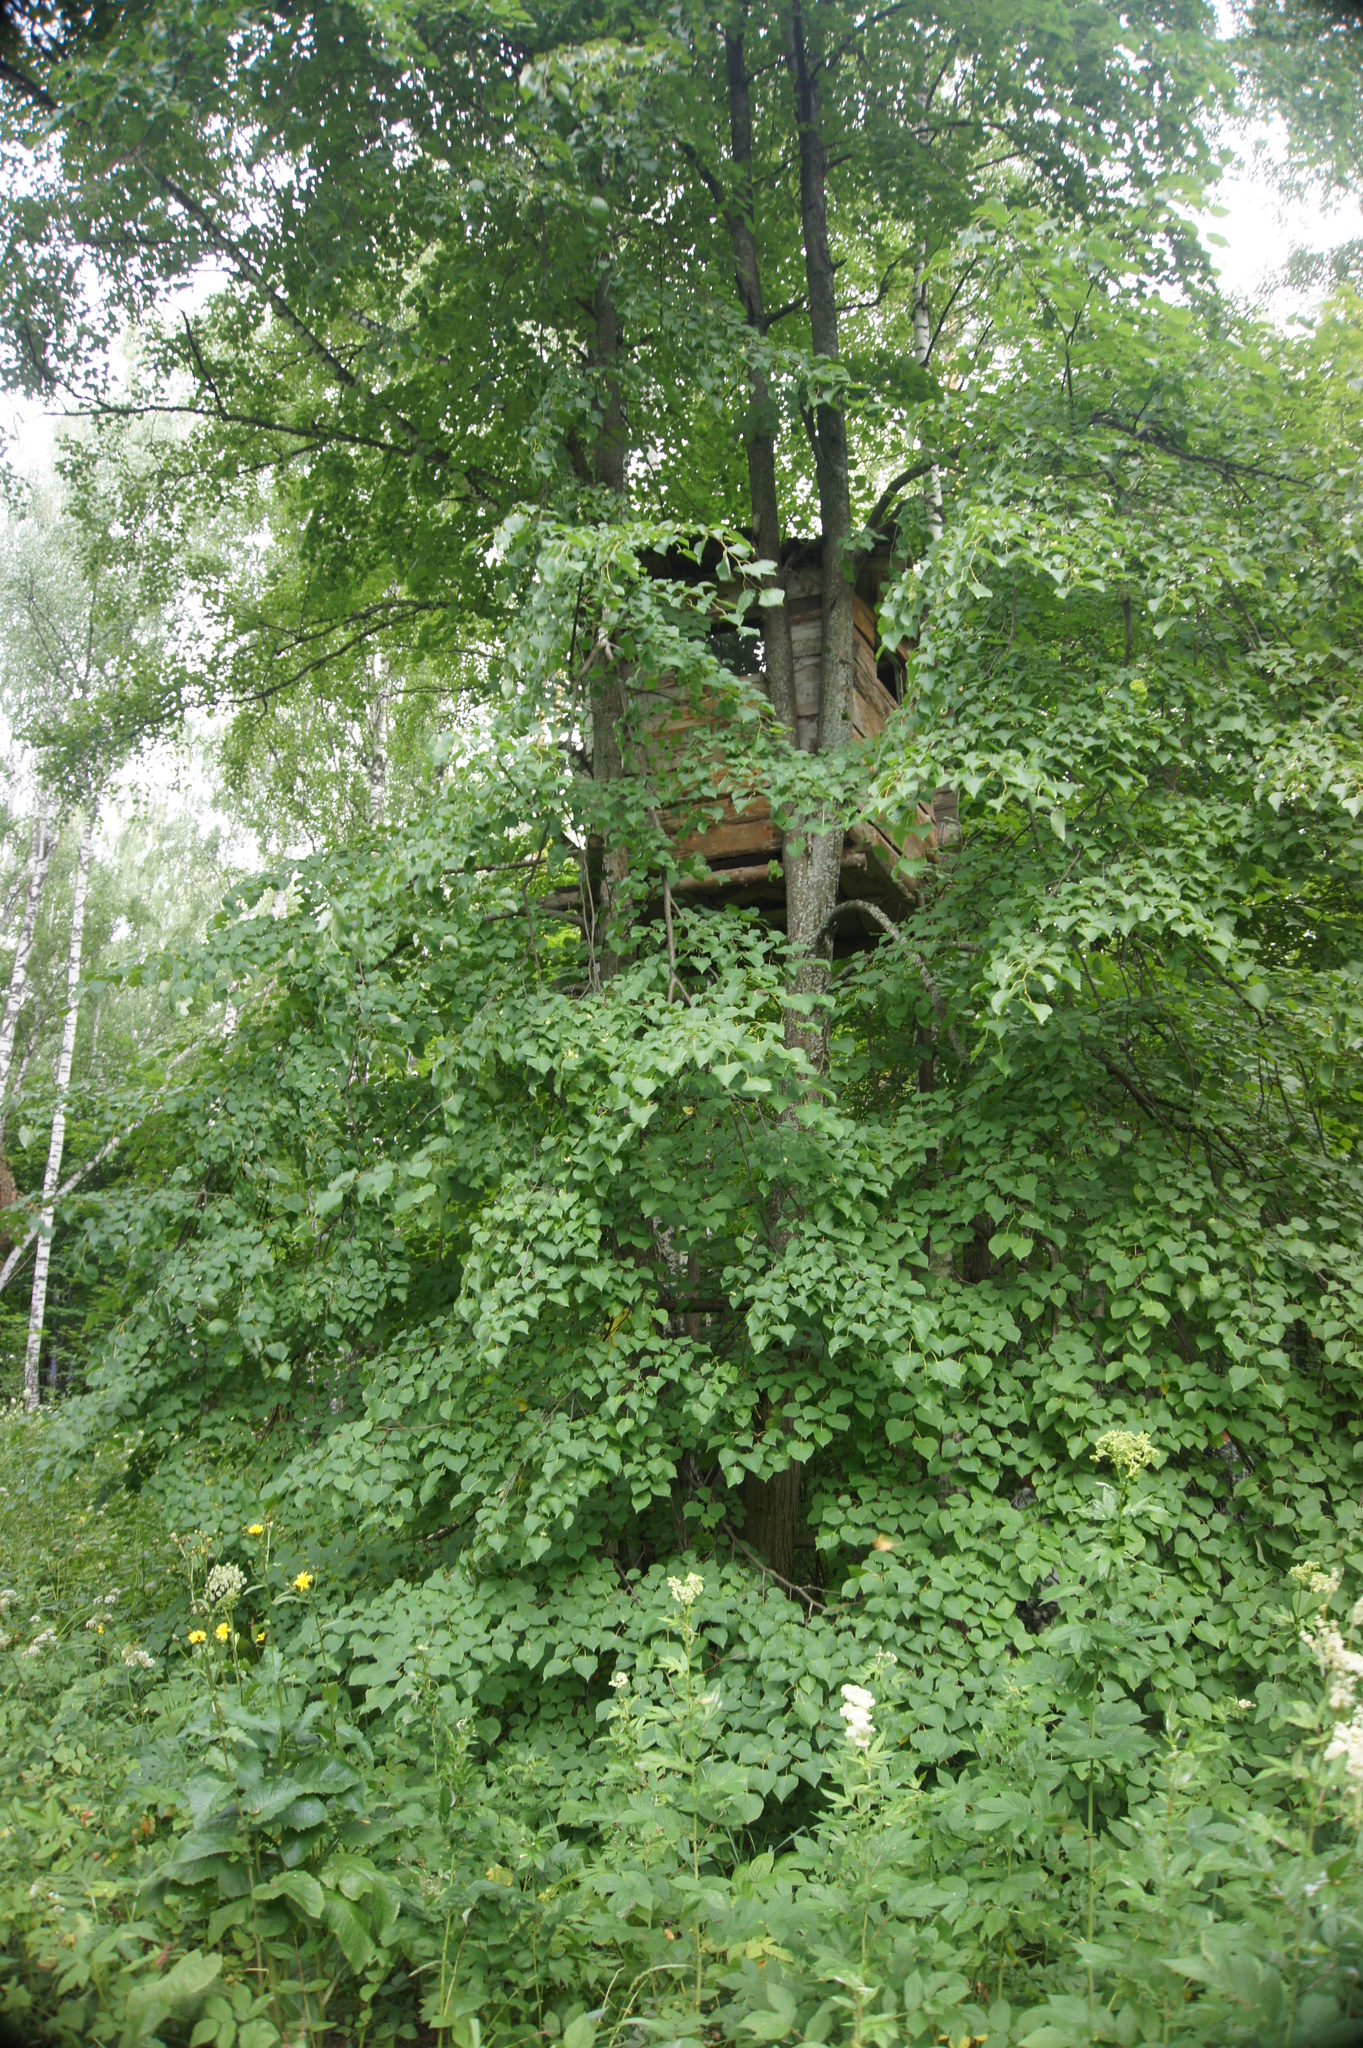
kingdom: Plantae
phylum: Tracheophyta
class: Magnoliopsida
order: Malvales
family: Malvaceae
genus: Tilia
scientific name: Tilia cordata
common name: Small-leaved lime
